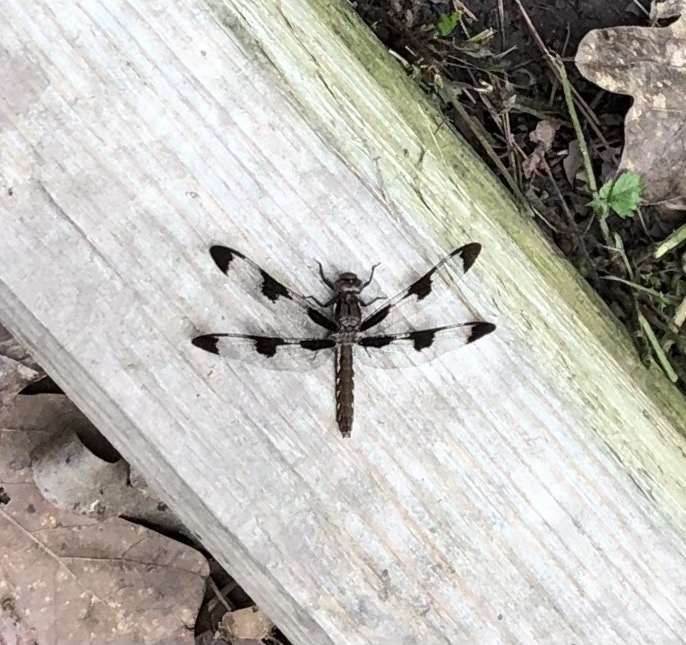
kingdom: Animalia
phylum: Arthropoda
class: Insecta
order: Odonata
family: Libellulidae
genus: Plathemis
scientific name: Plathemis lydia
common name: Common whitetail
